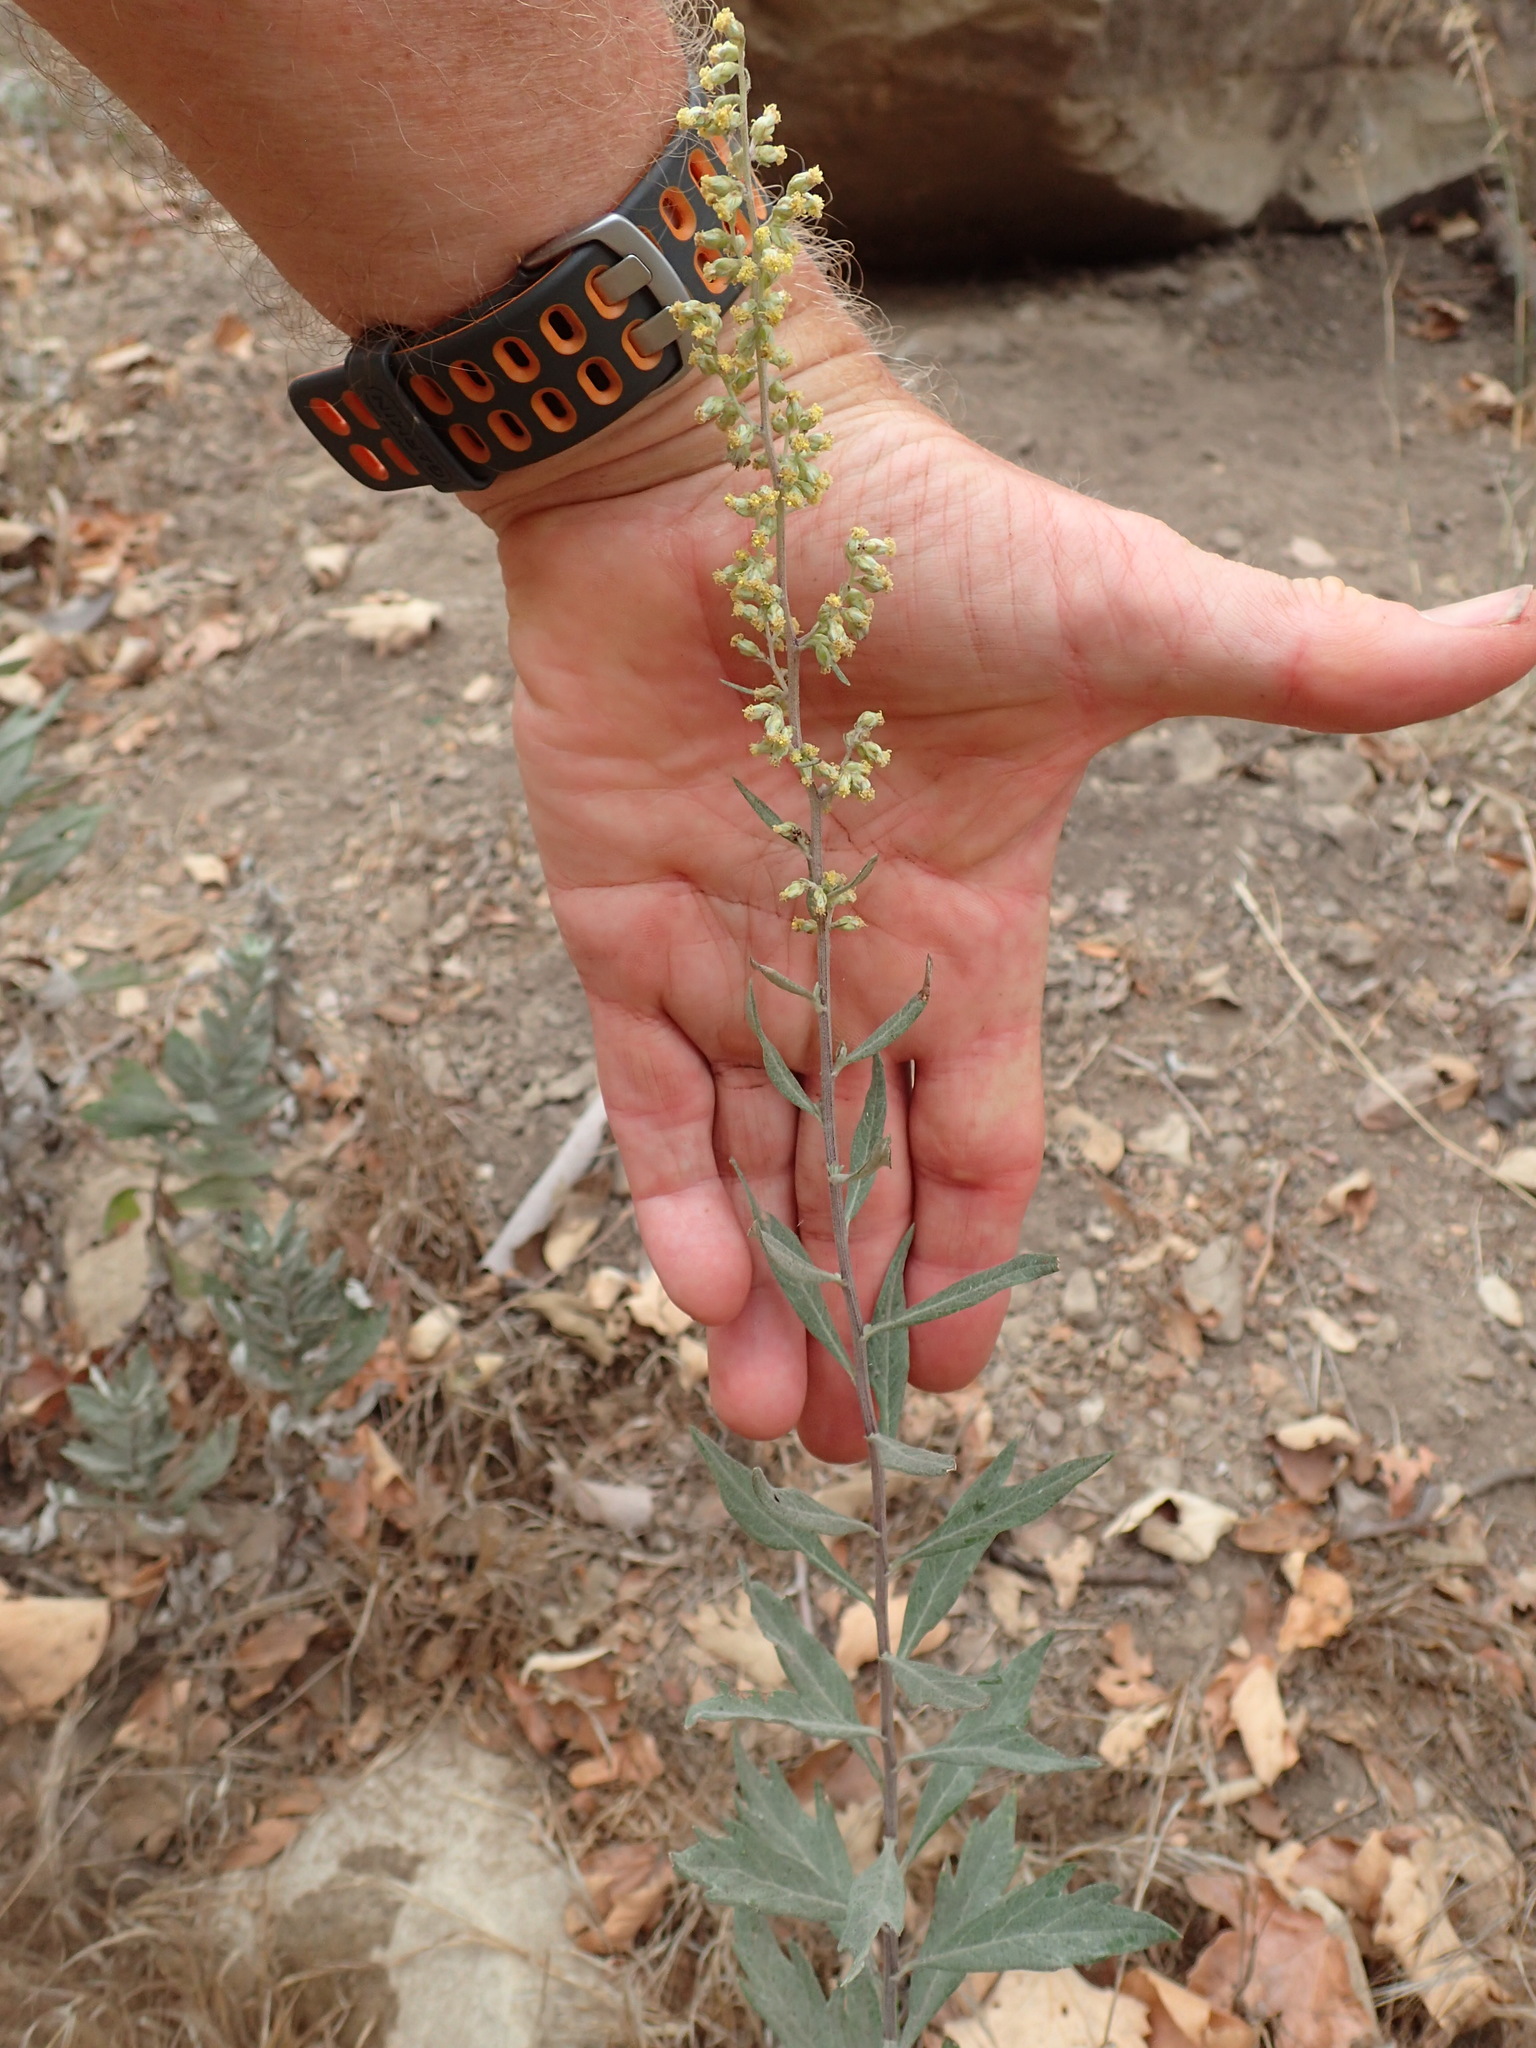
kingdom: Plantae
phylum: Tracheophyta
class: Magnoliopsida
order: Asterales
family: Asteraceae
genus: Artemisia
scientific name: Artemisia douglasiana
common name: Northwest mugwort
